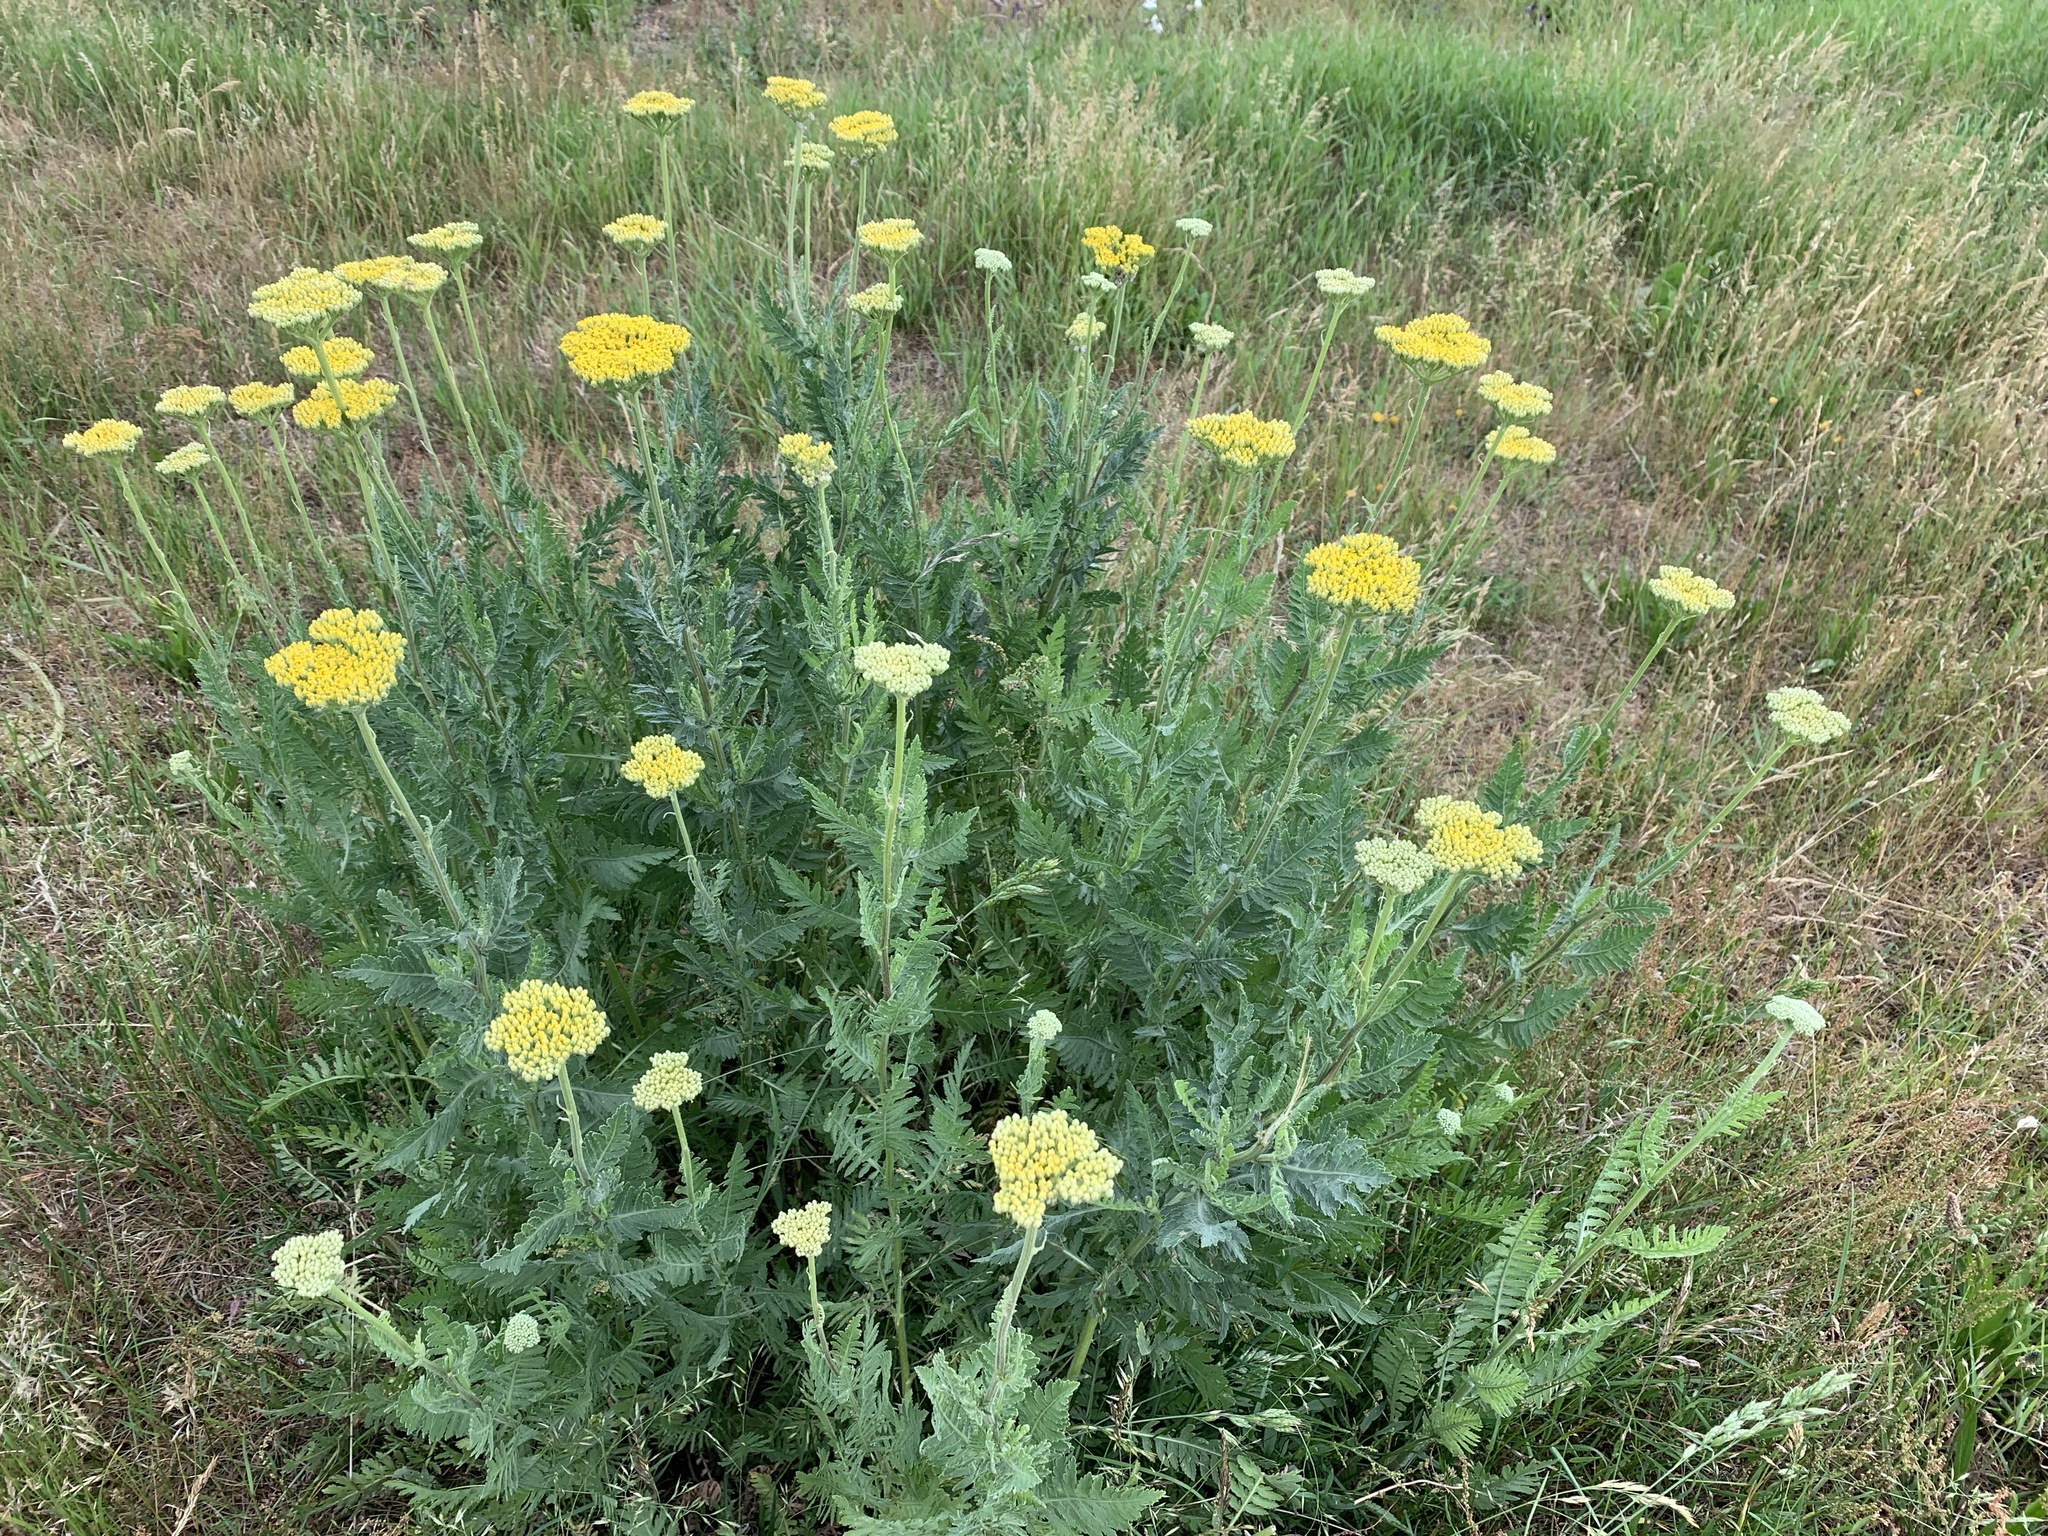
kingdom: Plantae
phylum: Tracheophyta
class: Magnoliopsida
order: Asterales
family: Asteraceae
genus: Achillea
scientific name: Achillea filipendulina
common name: Fernleaf yarrow
